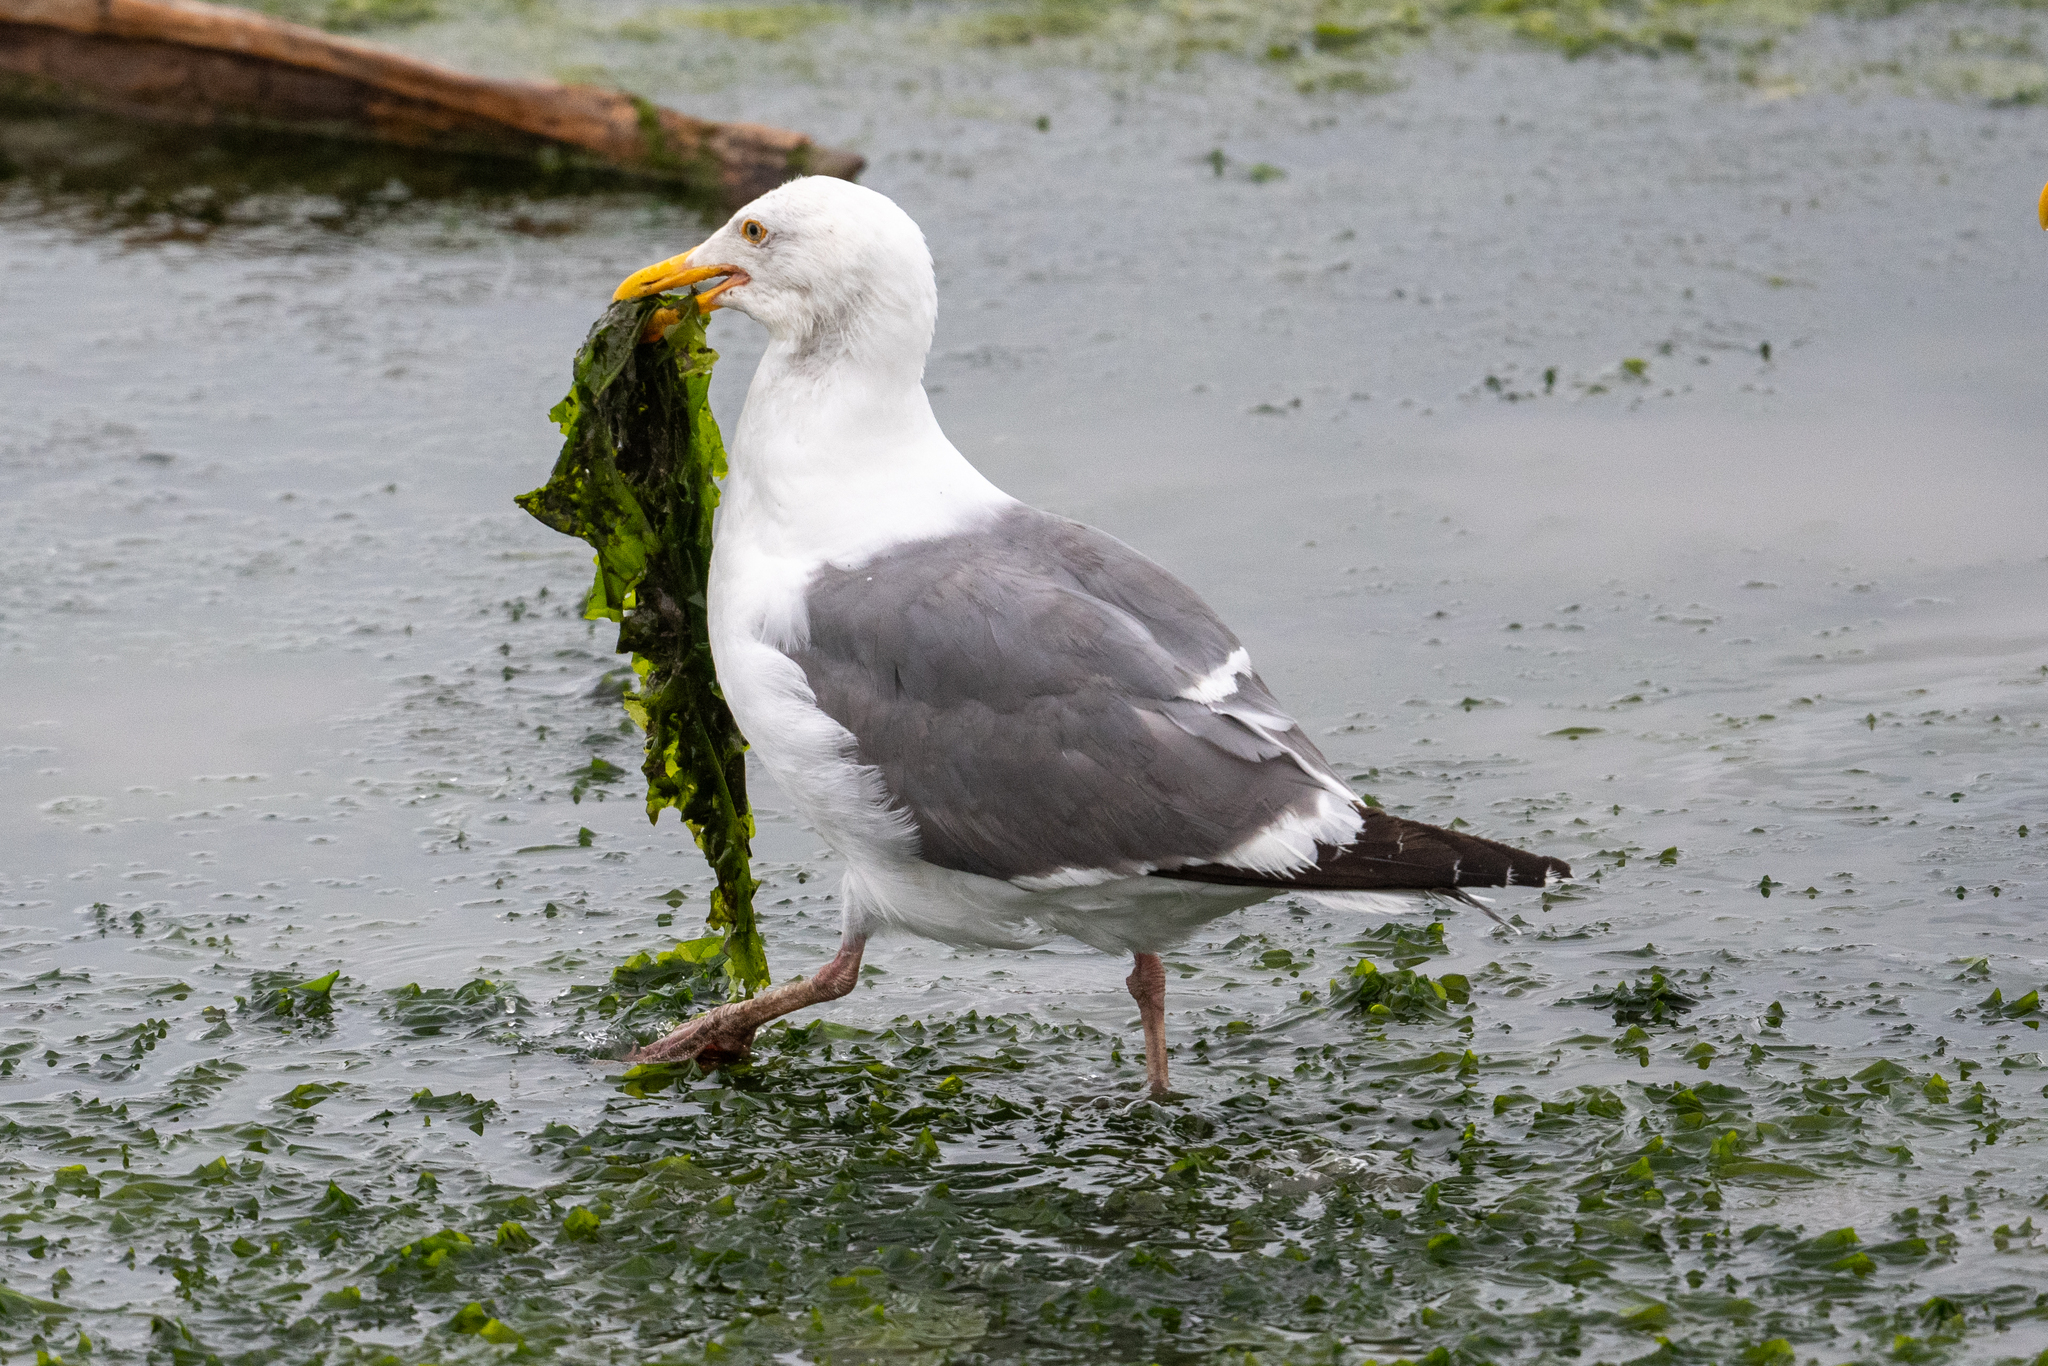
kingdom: Animalia
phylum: Chordata
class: Aves
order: Charadriiformes
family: Laridae
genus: Larus
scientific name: Larus occidentalis
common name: Western gull
